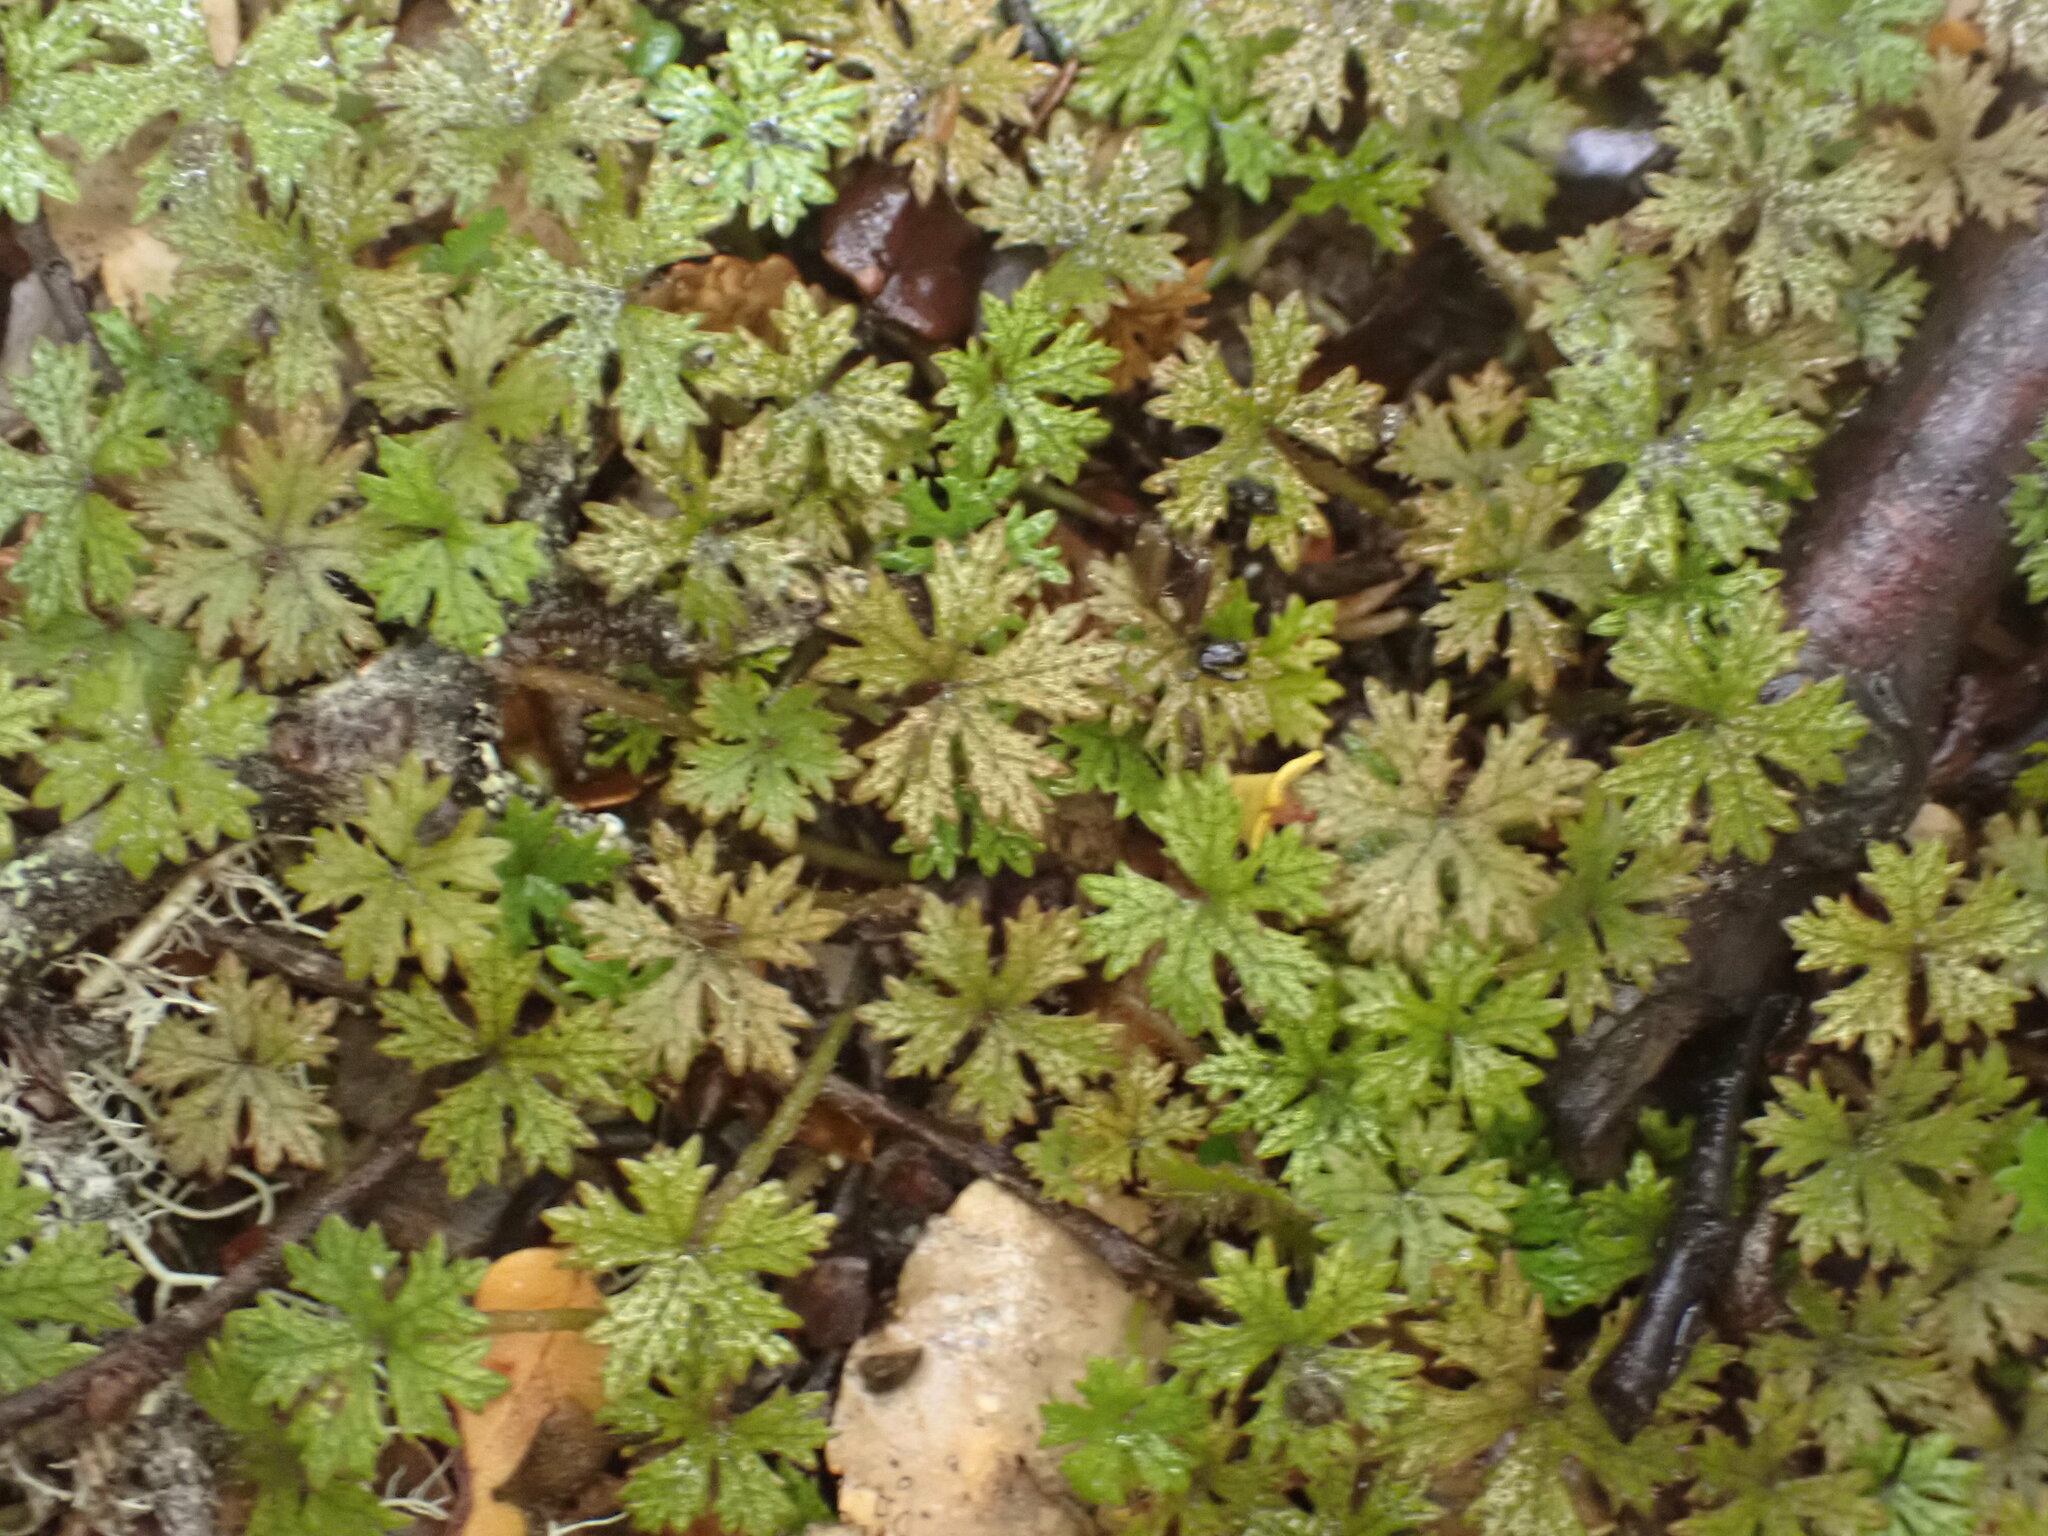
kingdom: Plantae
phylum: Tracheophyta
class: Magnoliopsida
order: Apiales
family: Araliaceae
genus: Hydrocotyle
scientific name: Hydrocotyle dissecta
